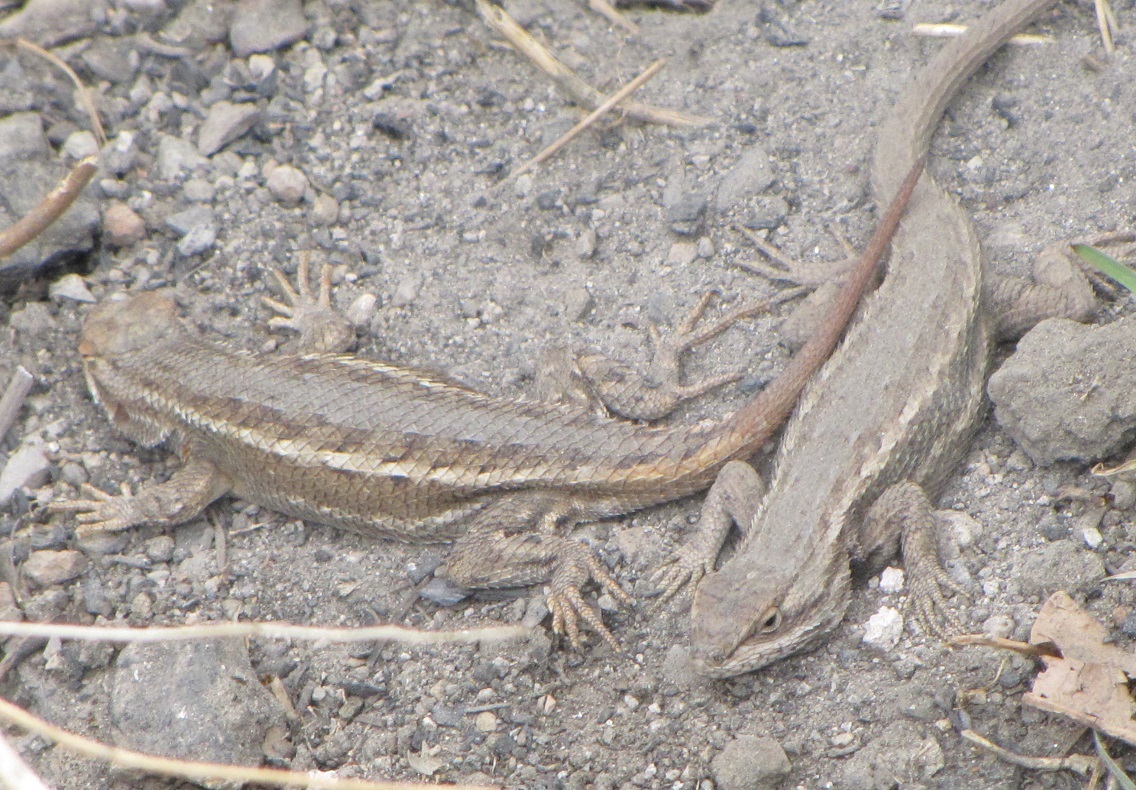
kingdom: Animalia
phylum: Chordata
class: Squamata
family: Phrynosomatidae
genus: Sceloporus
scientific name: Sceloporus cowlesi
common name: White sands prairie lizard
